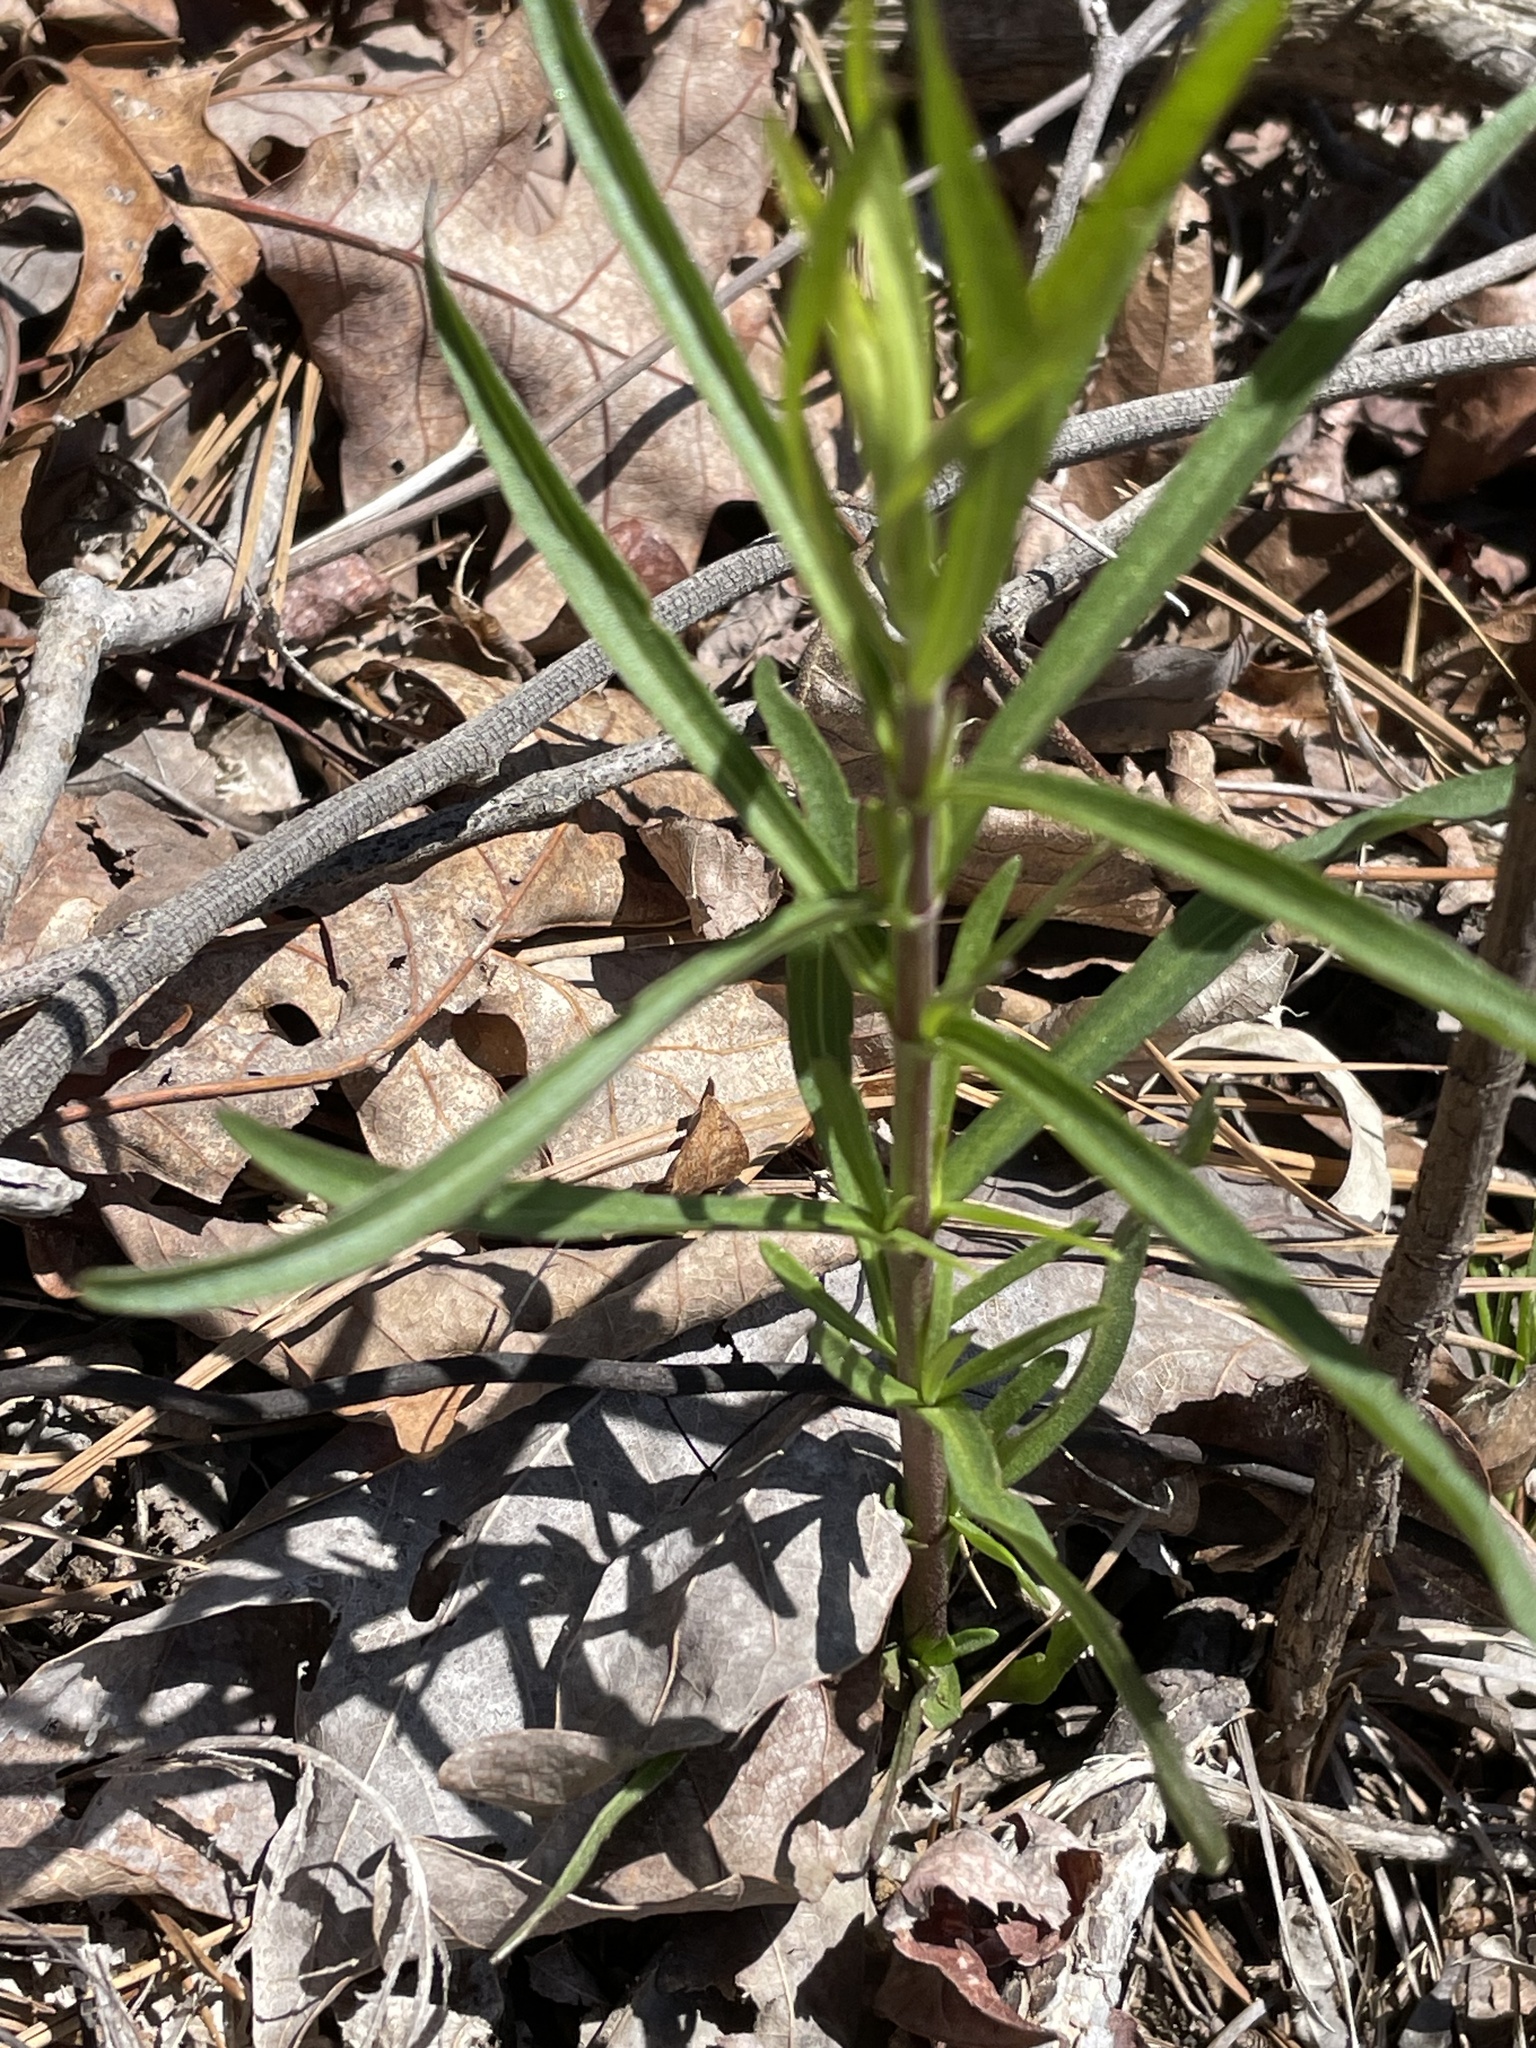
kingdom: Plantae
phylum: Tracheophyta
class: Magnoliopsida
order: Asterales
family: Asteraceae
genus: Eupatorium
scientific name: Eupatorium hyssopifolium
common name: Hyssop-leaf thoroughwort
